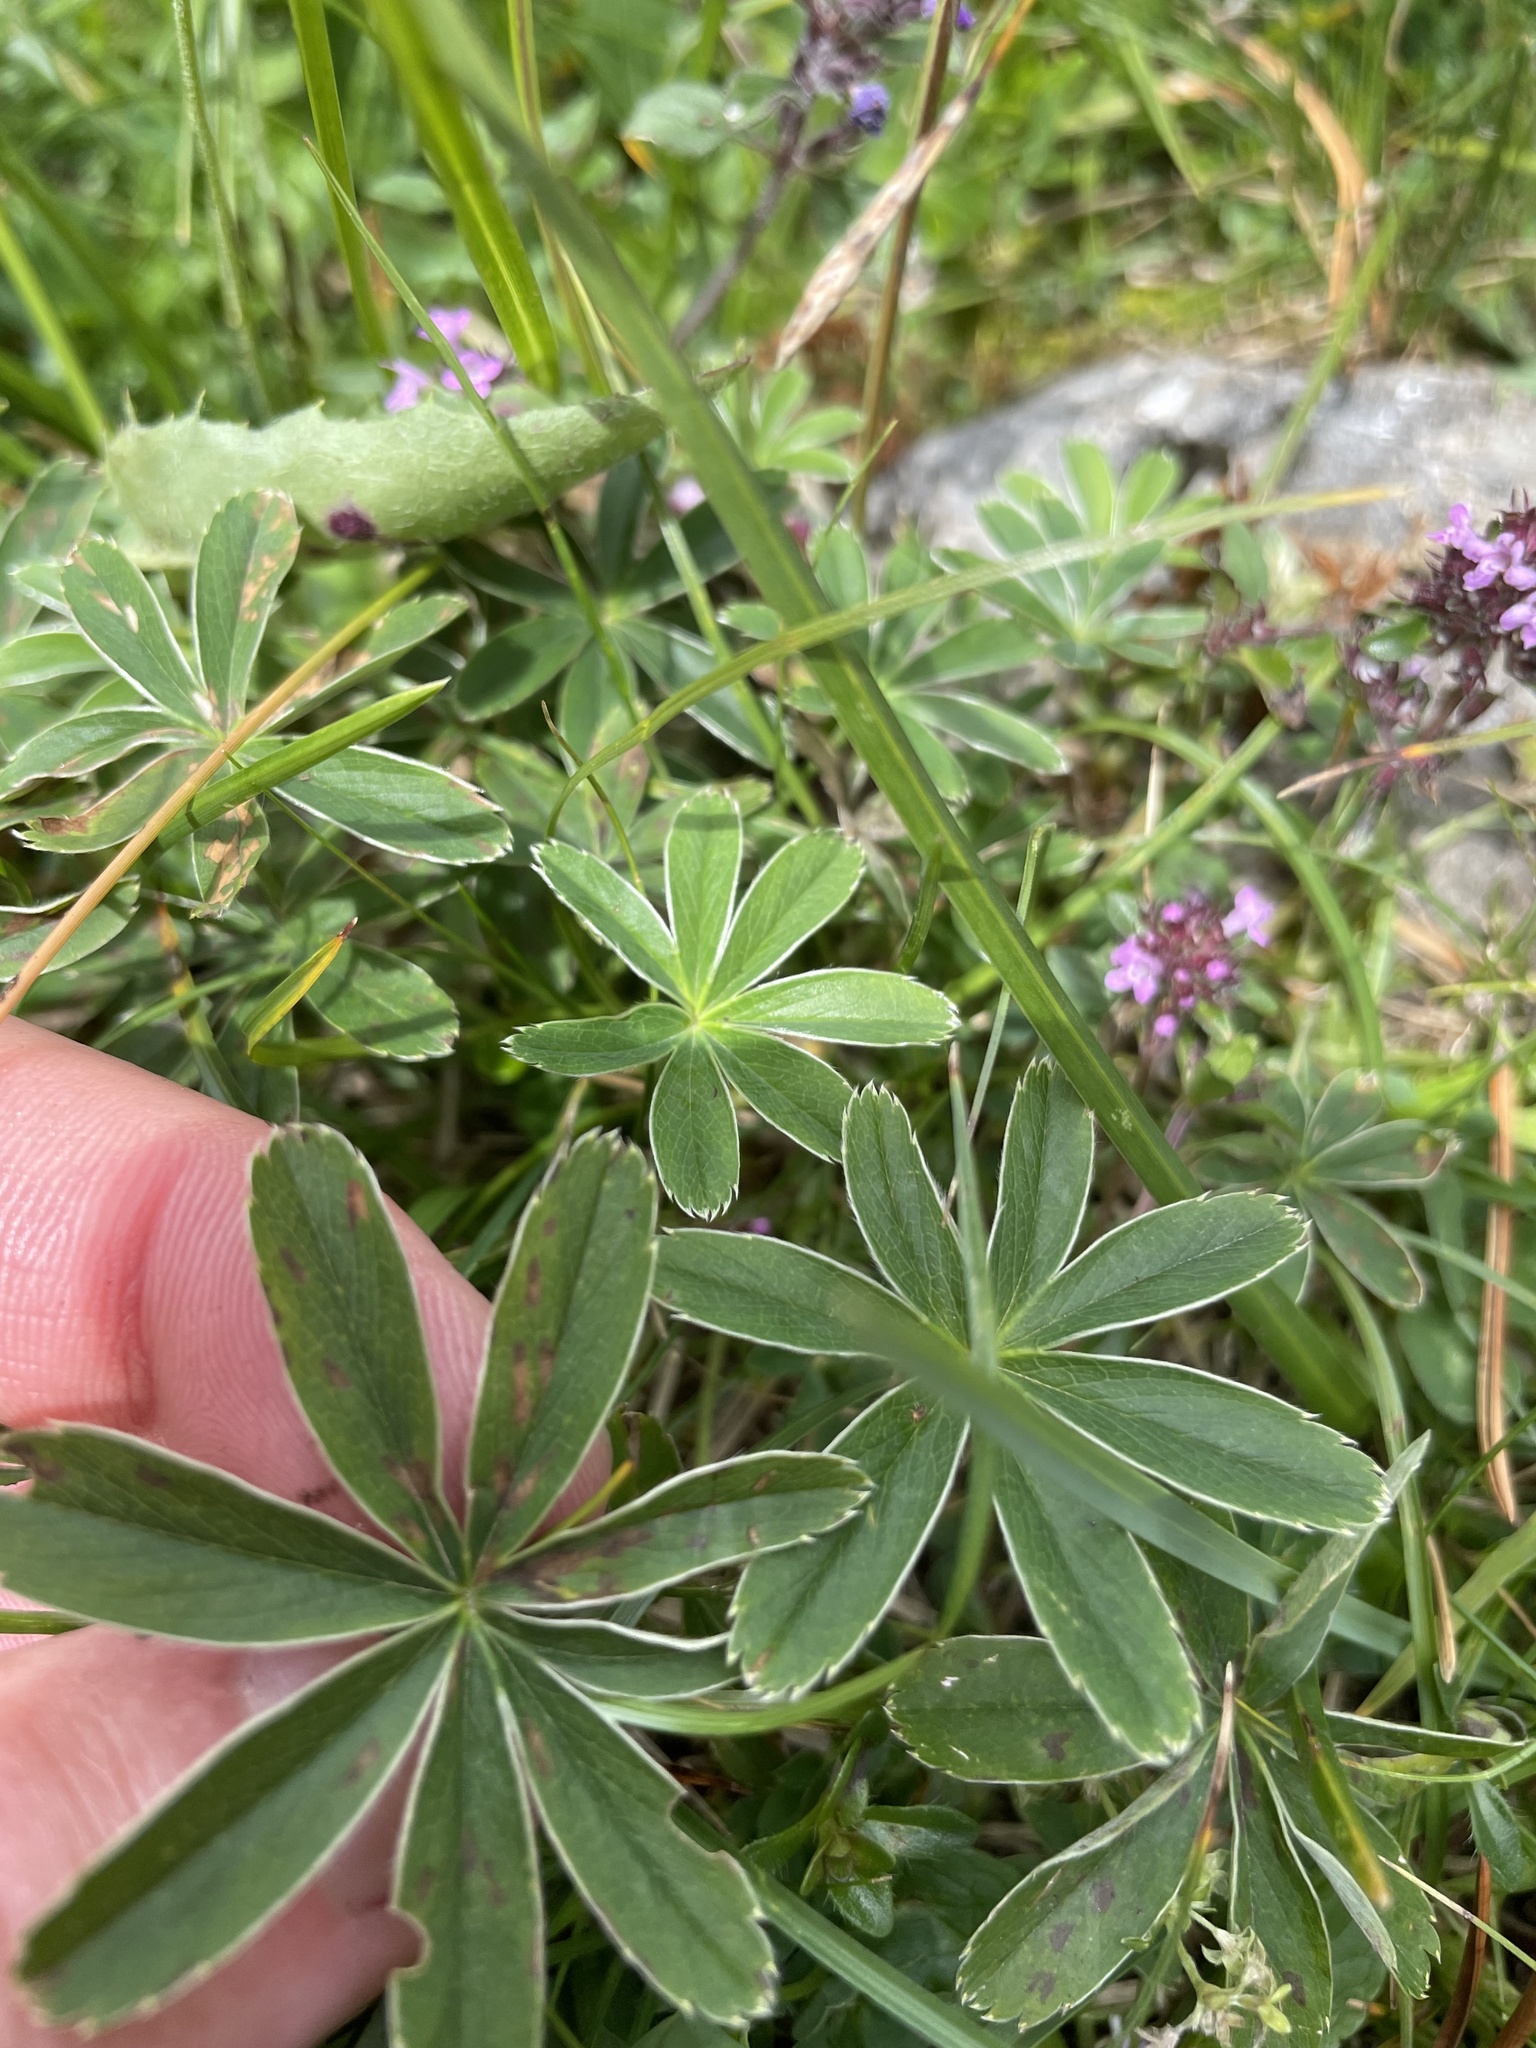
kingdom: Plantae
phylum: Tracheophyta
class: Magnoliopsida
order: Rosales
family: Rosaceae
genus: Alchemilla
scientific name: Alchemilla alpina
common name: Alpine lady's-mantle
